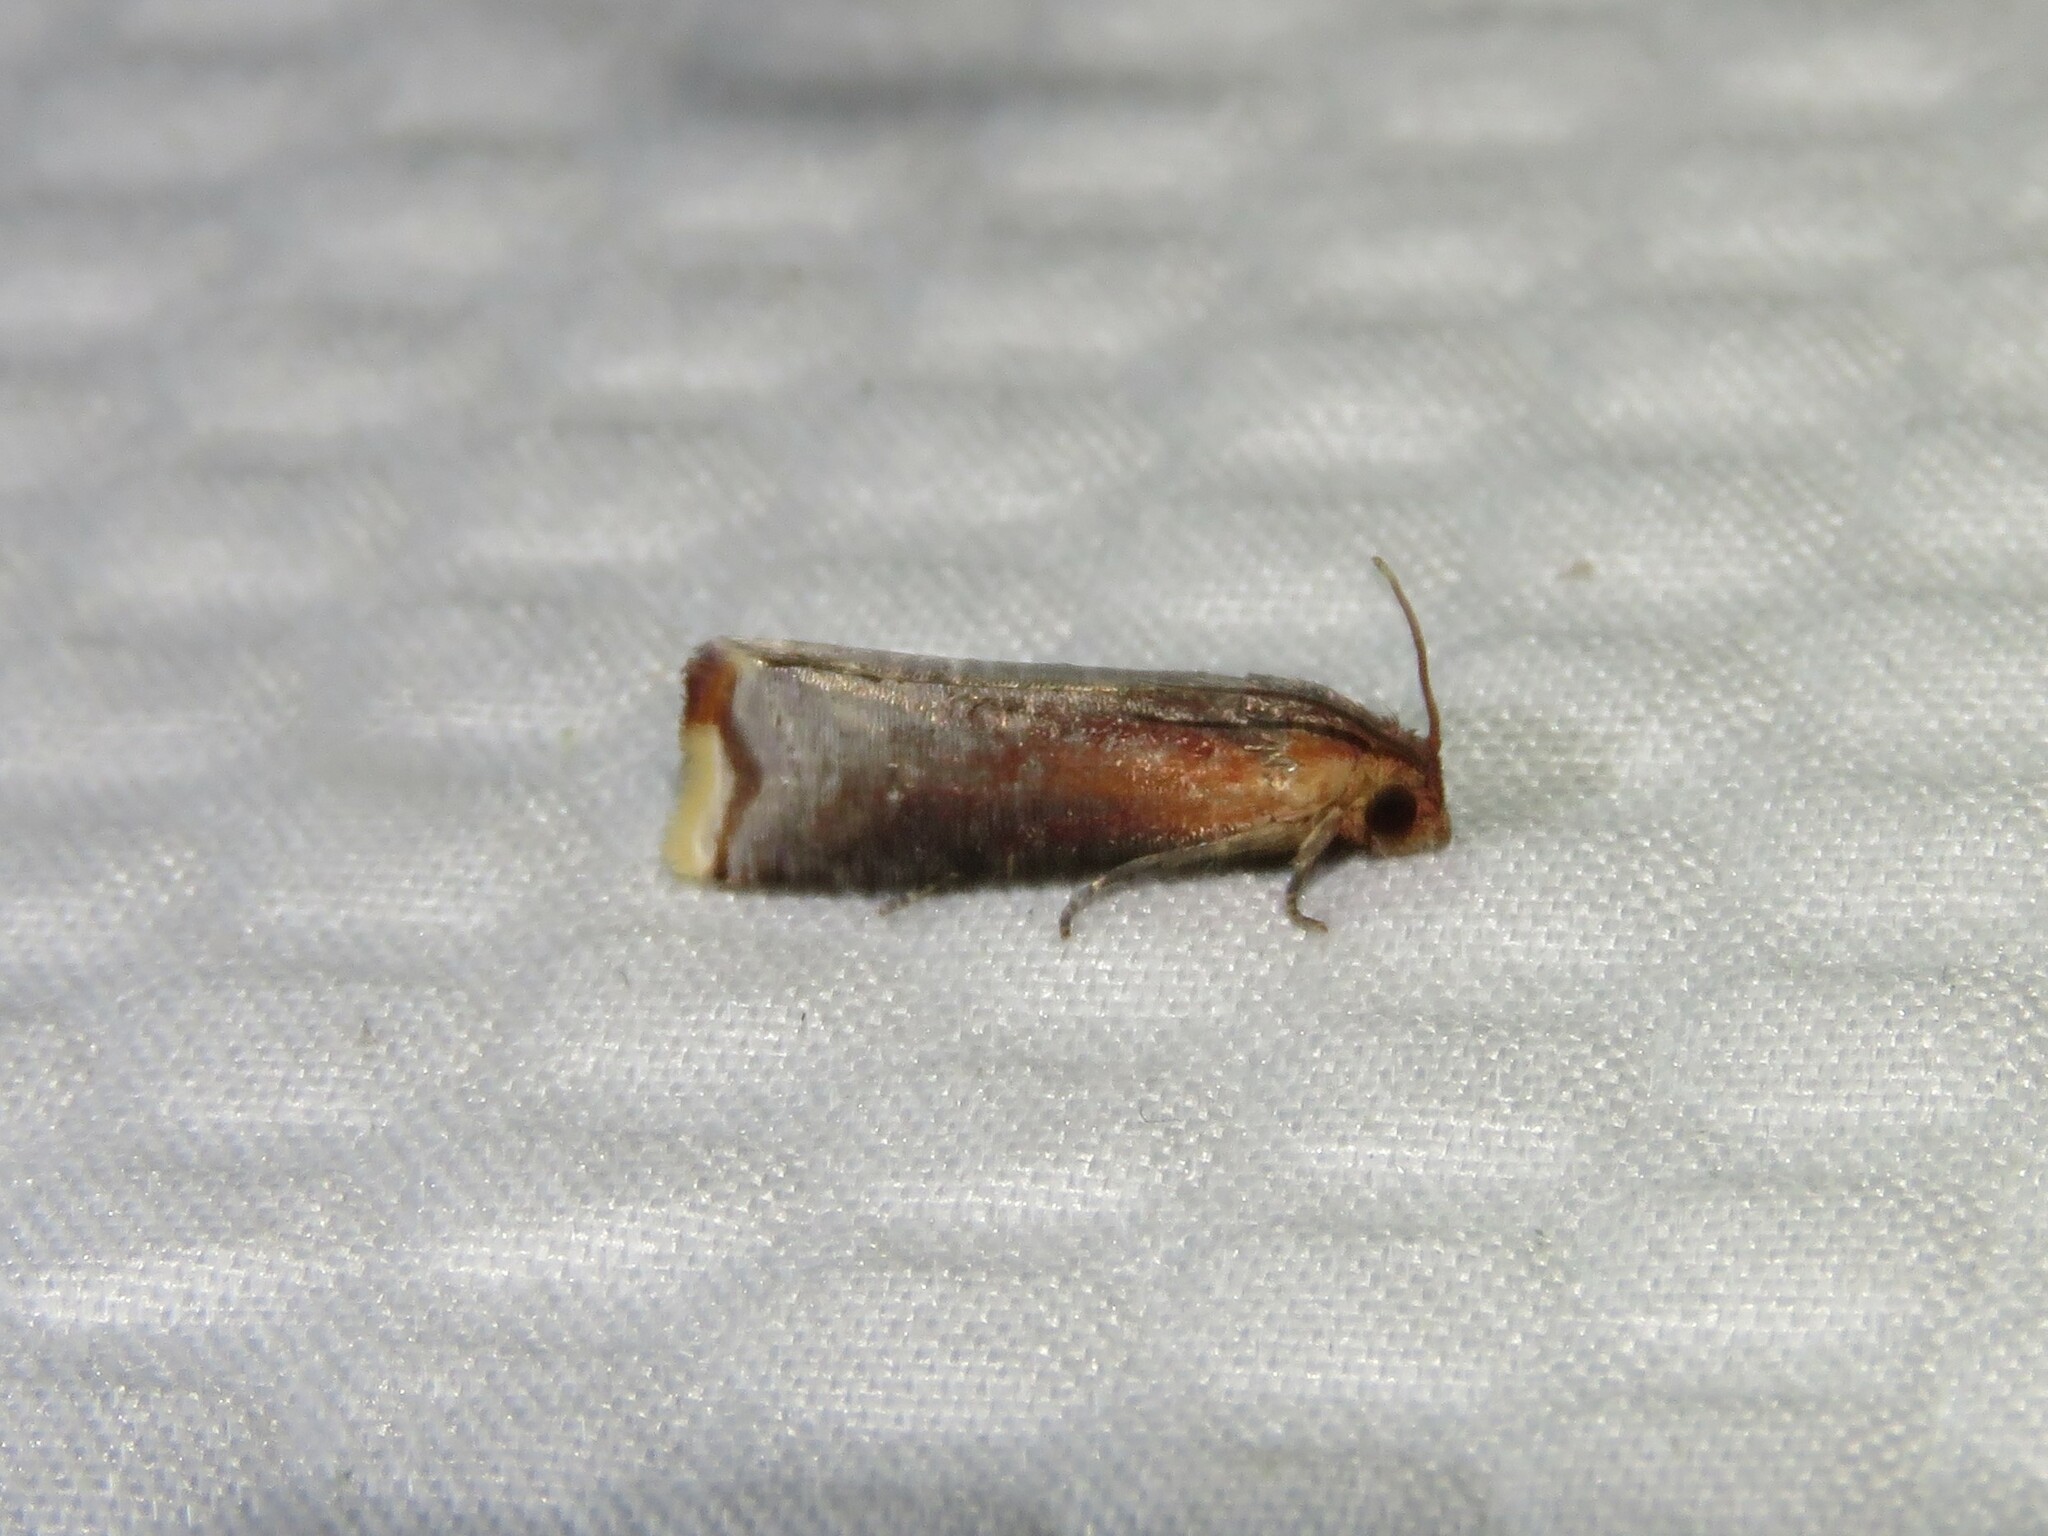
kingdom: Animalia
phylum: Arthropoda
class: Insecta
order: Lepidoptera
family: Tortricidae
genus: Pseudogalleria
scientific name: Pseudogalleria inimicella
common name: Inimical borer moth
